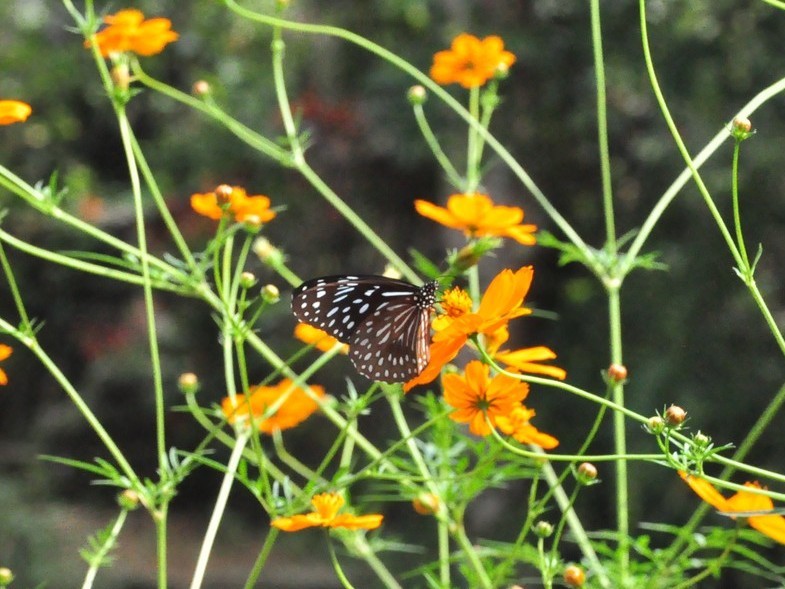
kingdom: Animalia
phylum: Arthropoda
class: Insecta
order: Lepidoptera
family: Nymphalidae
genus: Tirumala
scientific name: Tirumala septentrionis
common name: Dark blue tiger butterfly
